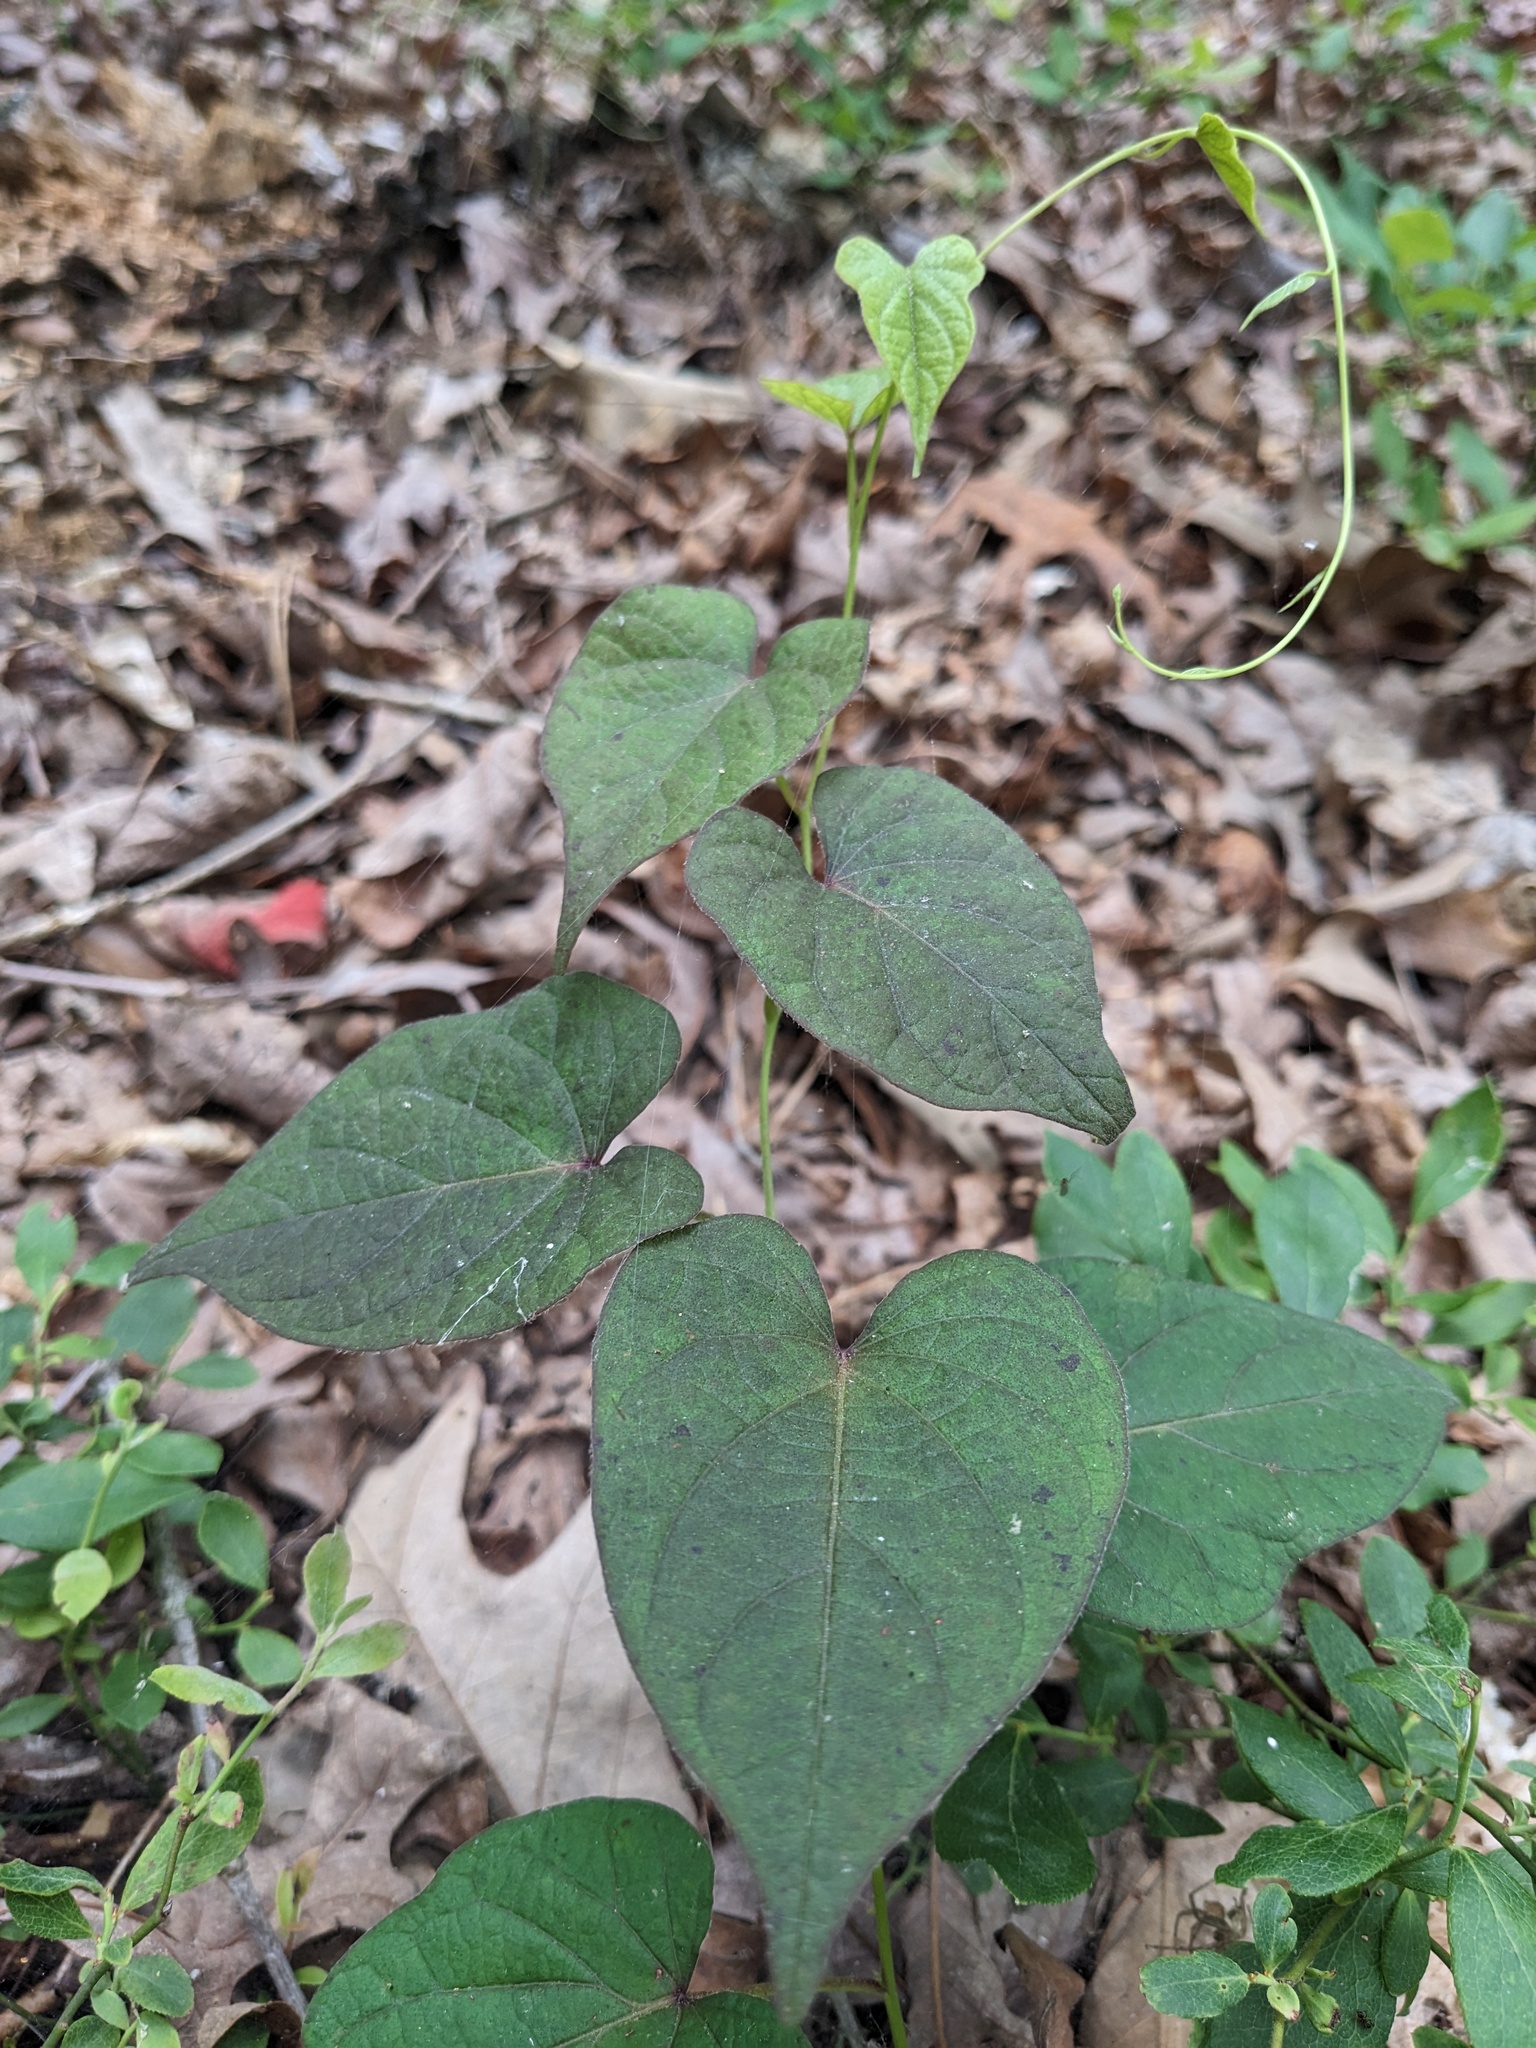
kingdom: Plantae
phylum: Tracheophyta
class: Magnoliopsida
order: Solanales
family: Convolvulaceae
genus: Ipomoea
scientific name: Ipomoea pandurata
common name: Man-of-the-earth
